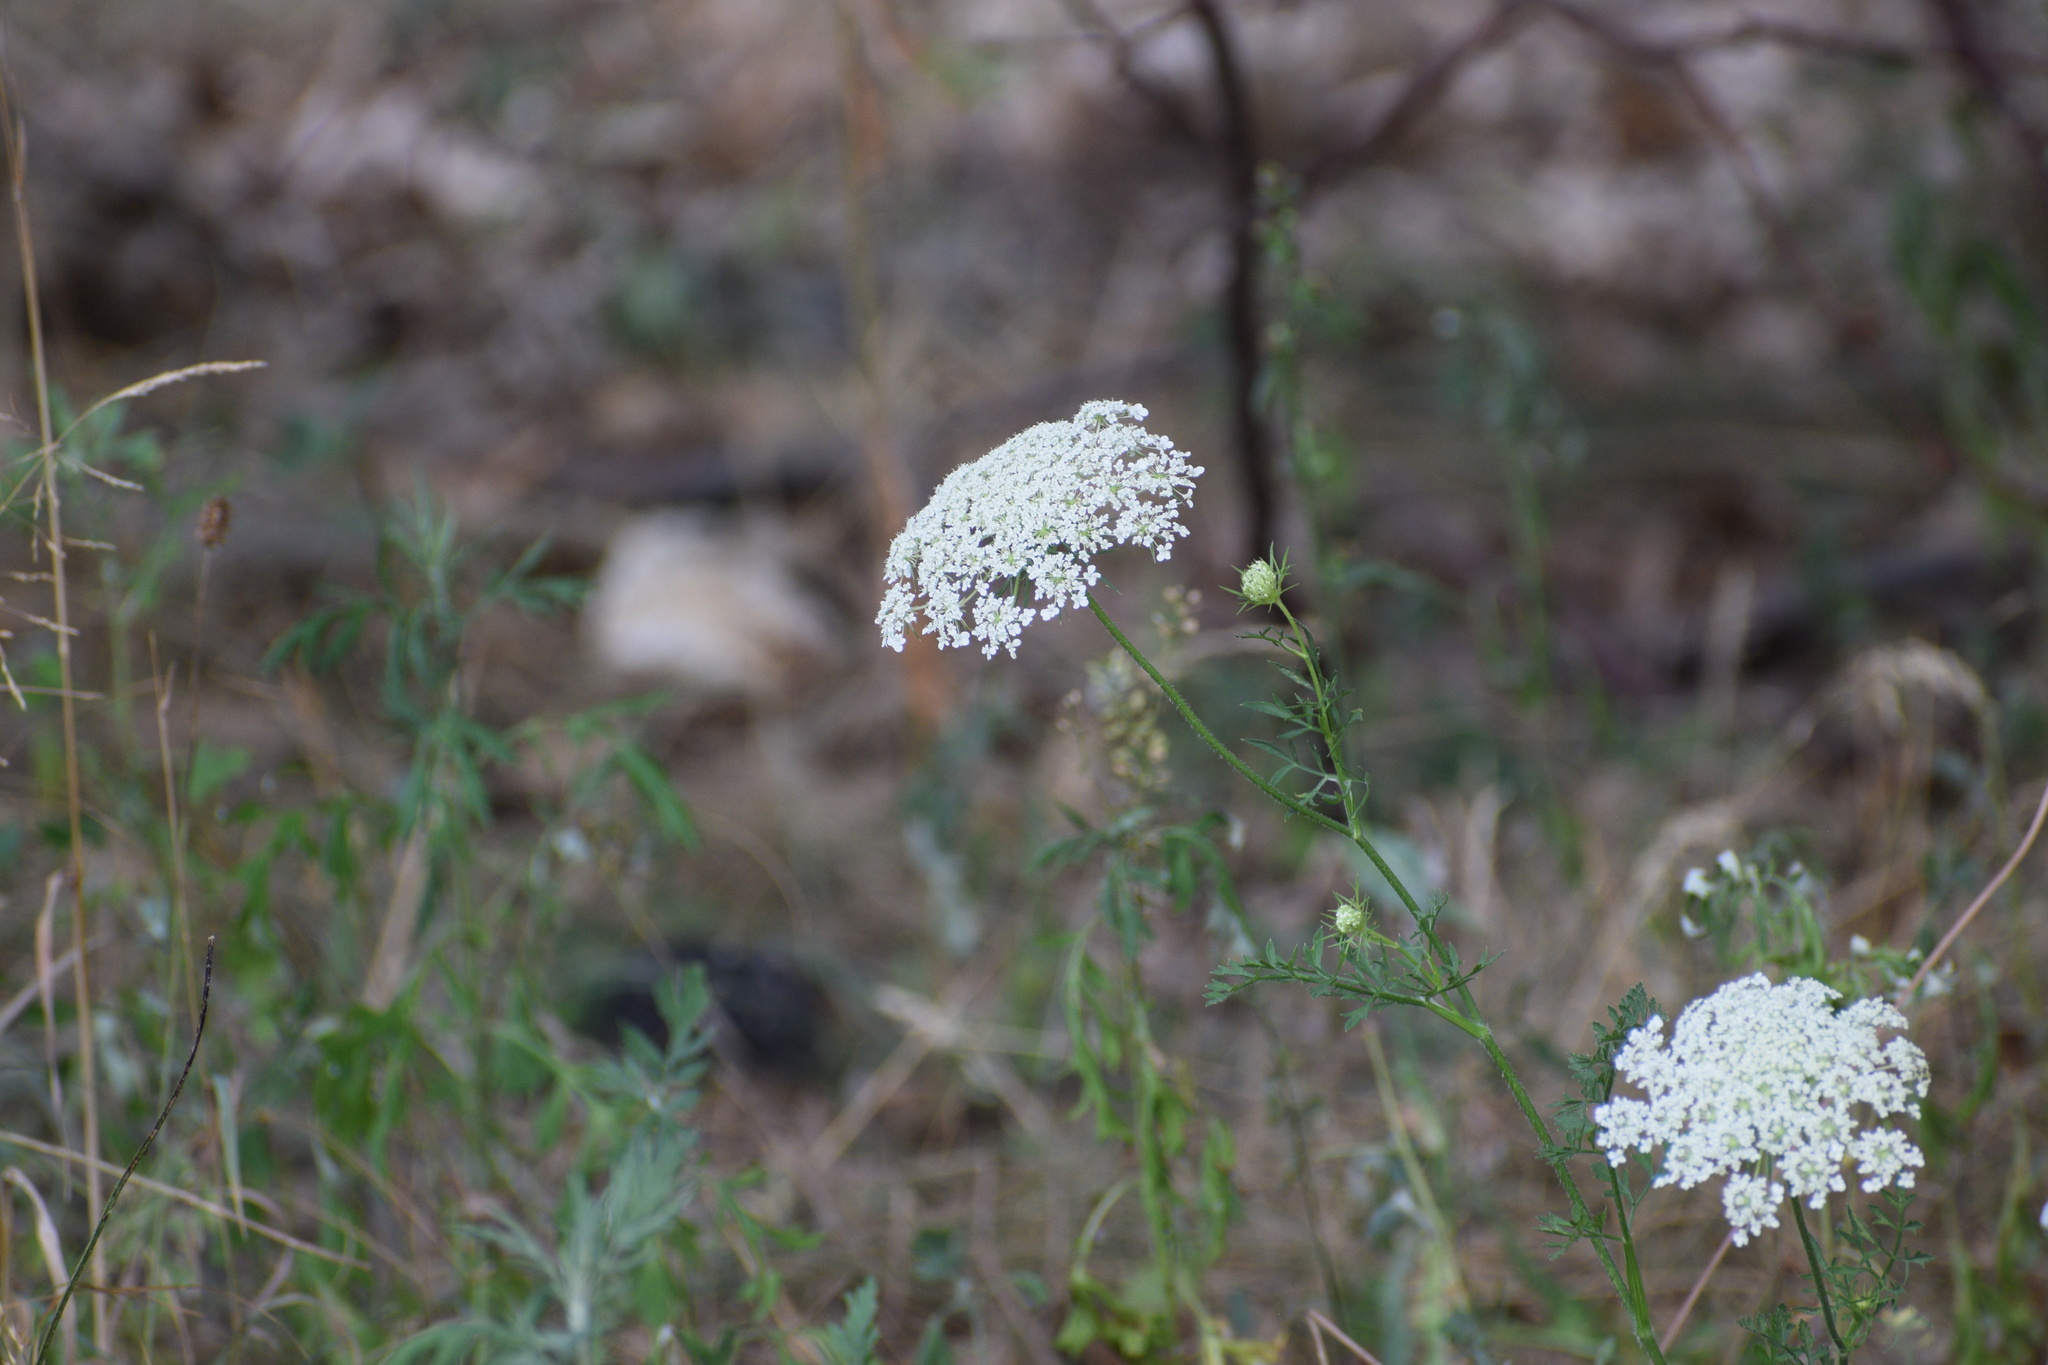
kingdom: Plantae
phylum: Tracheophyta
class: Magnoliopsida
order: Apiales
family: Apiaceae
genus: Daucus
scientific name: Daucus carota
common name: Wild carrot
